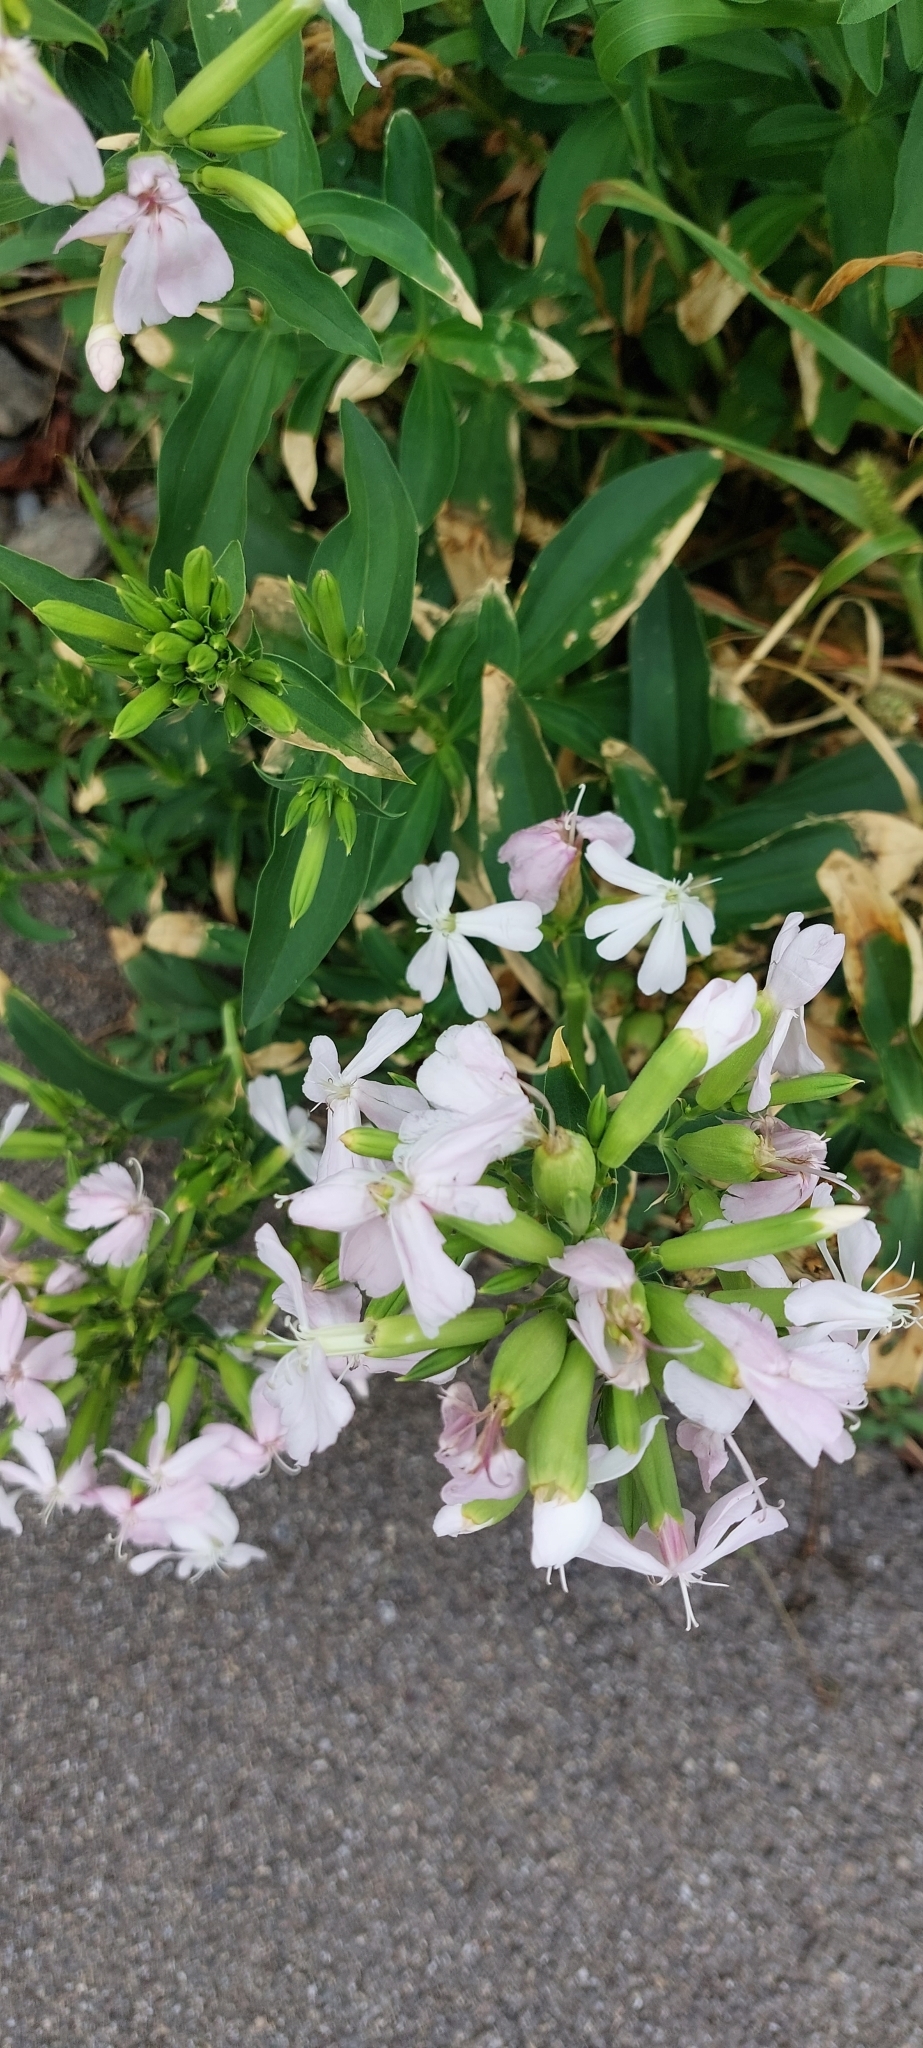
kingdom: Plantae
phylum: Tracheophyta
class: Magnoliopsida
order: Caryophyllales
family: Caryophyllaceae
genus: Saponaria
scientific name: Saponaria officinalis
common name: Soapwort
